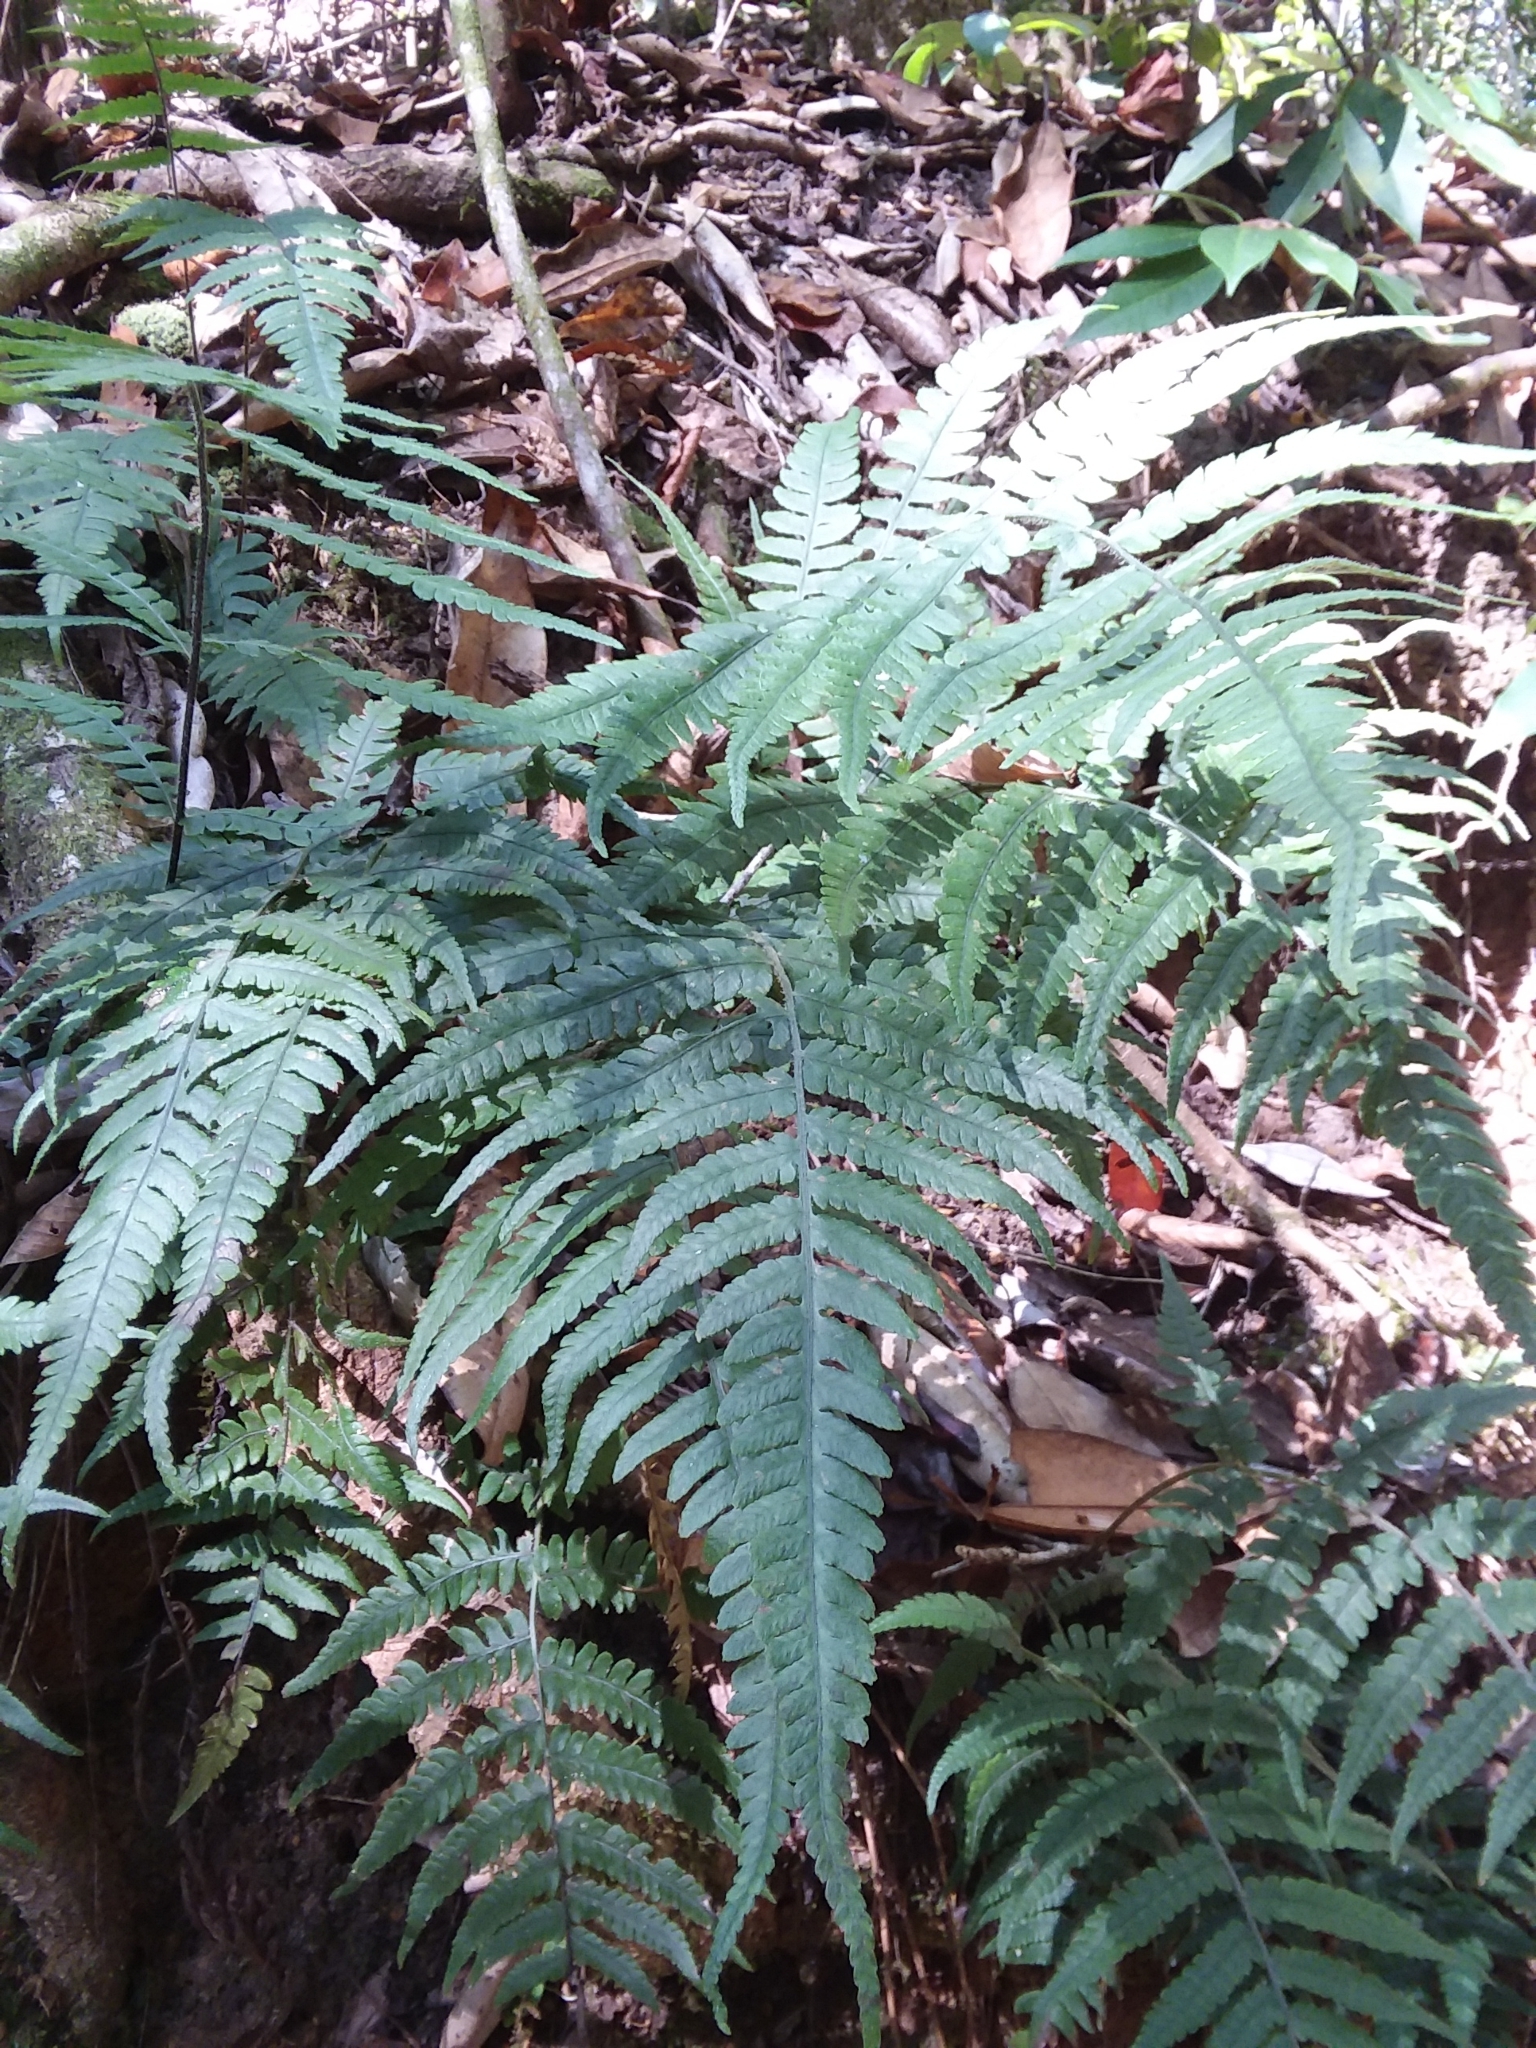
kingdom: Plantae
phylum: Tracheophyta
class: Polypodiopsida
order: Polypodiales
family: Athyriaceae
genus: Deparia
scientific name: Deparia petersenii
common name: Japanese false spleenwort
